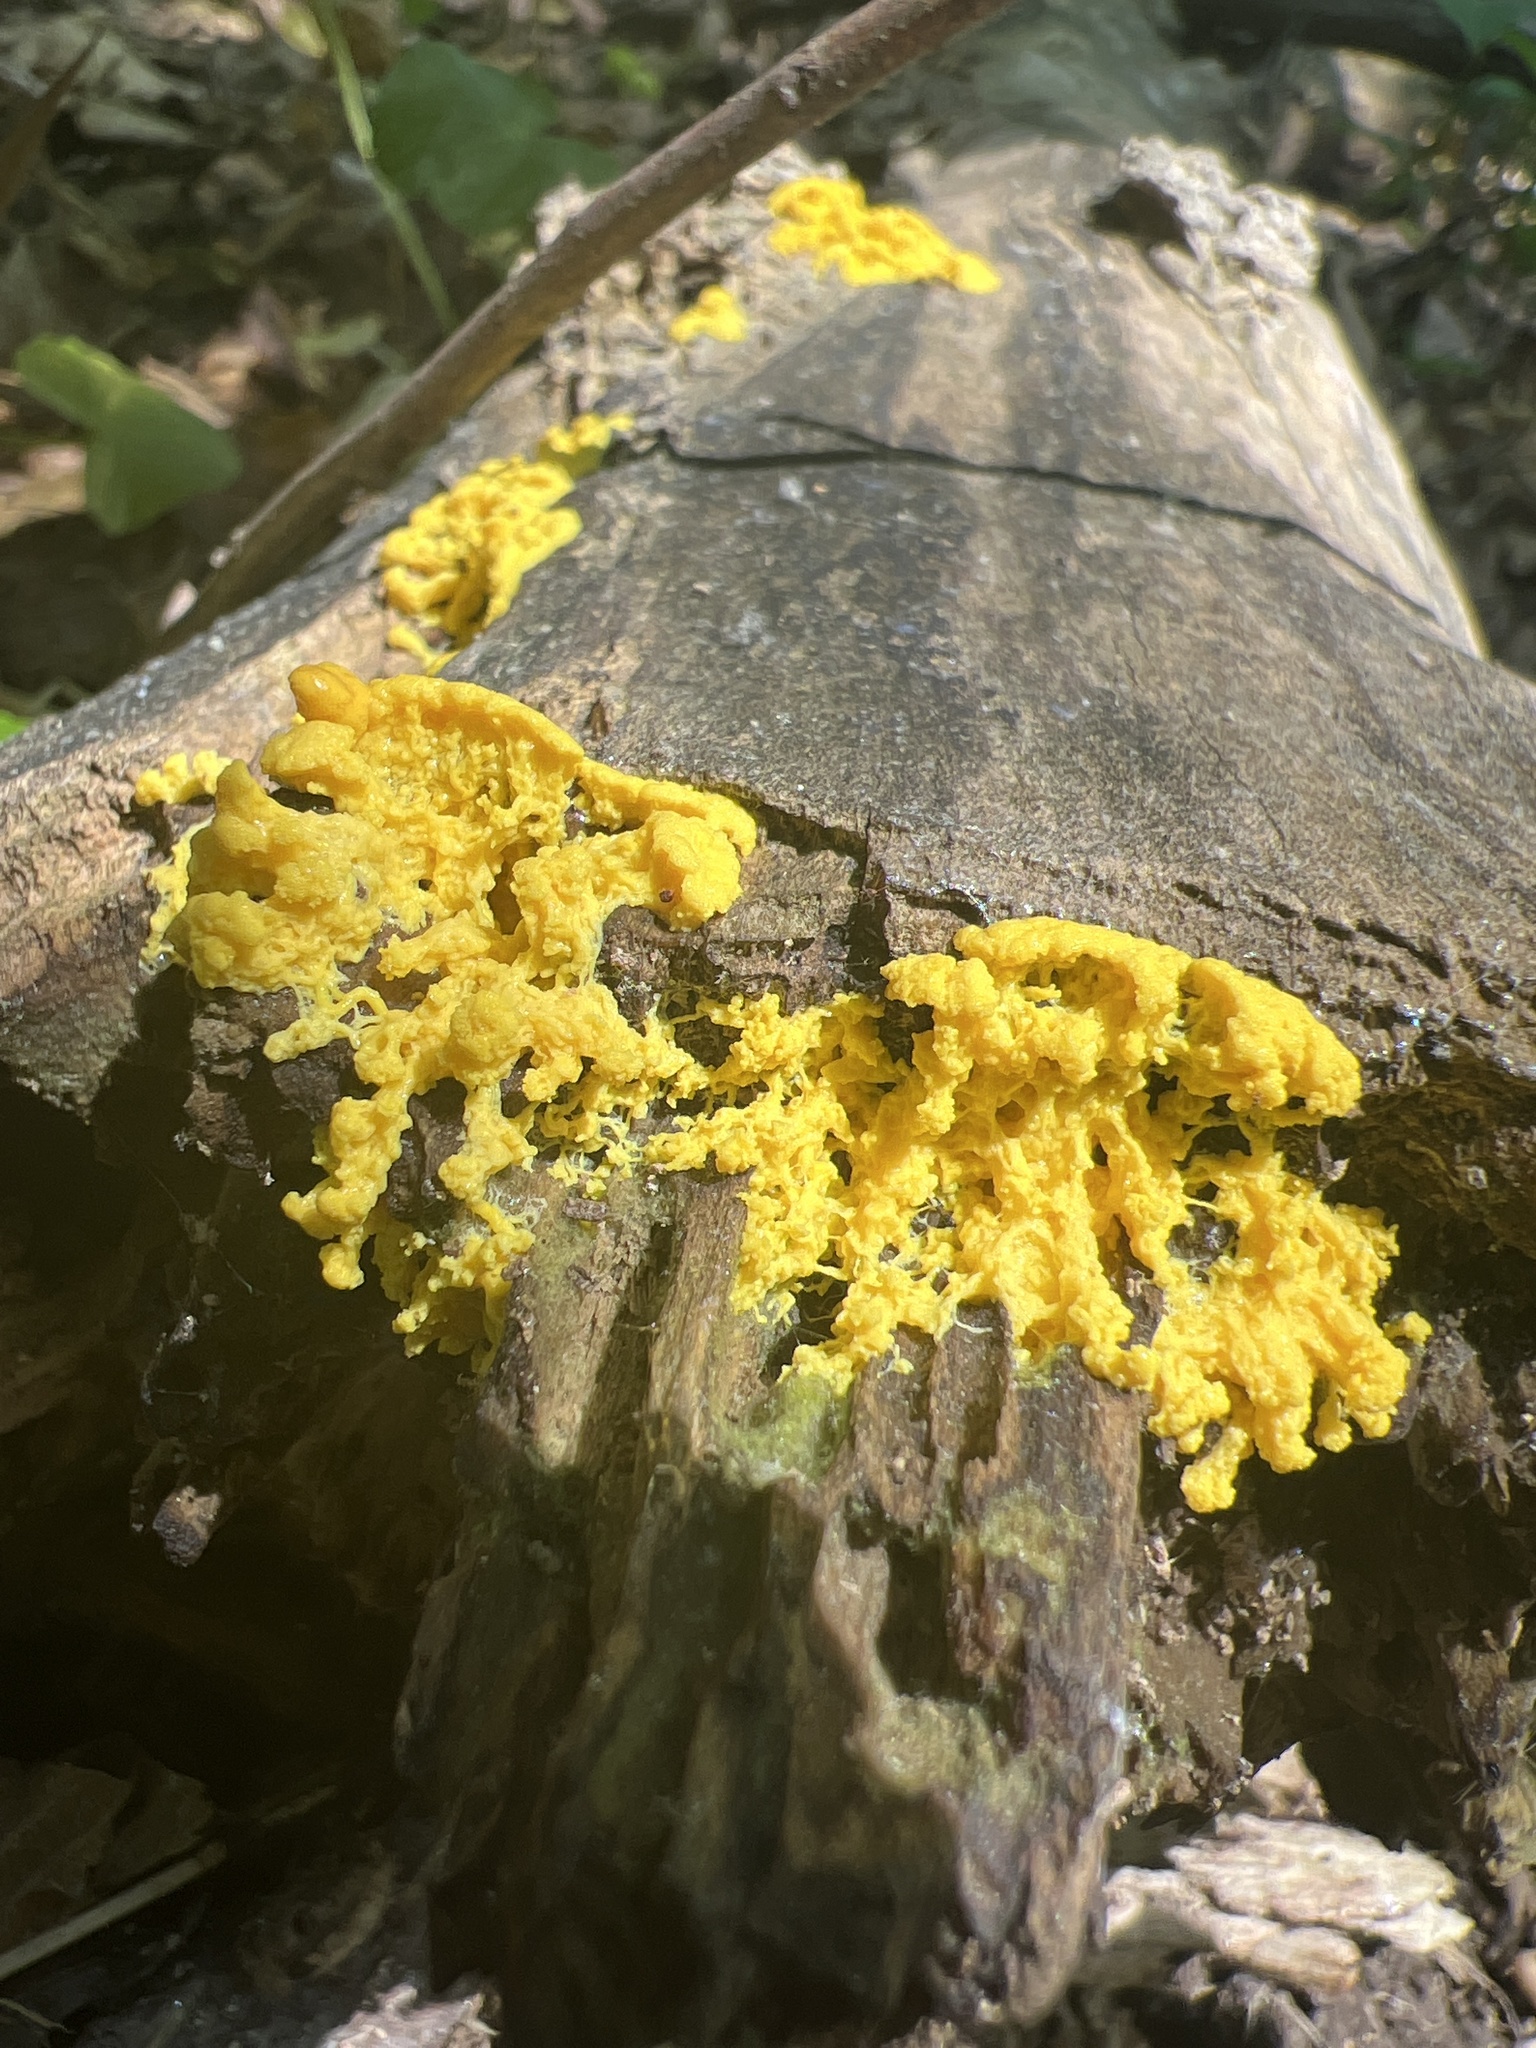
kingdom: Protozoa
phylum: Mycetozoa
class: Myxomycetes
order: Physarales
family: Physaraceae
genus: Fuligo
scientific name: Fuligo septica
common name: Dog vomit slime mold
